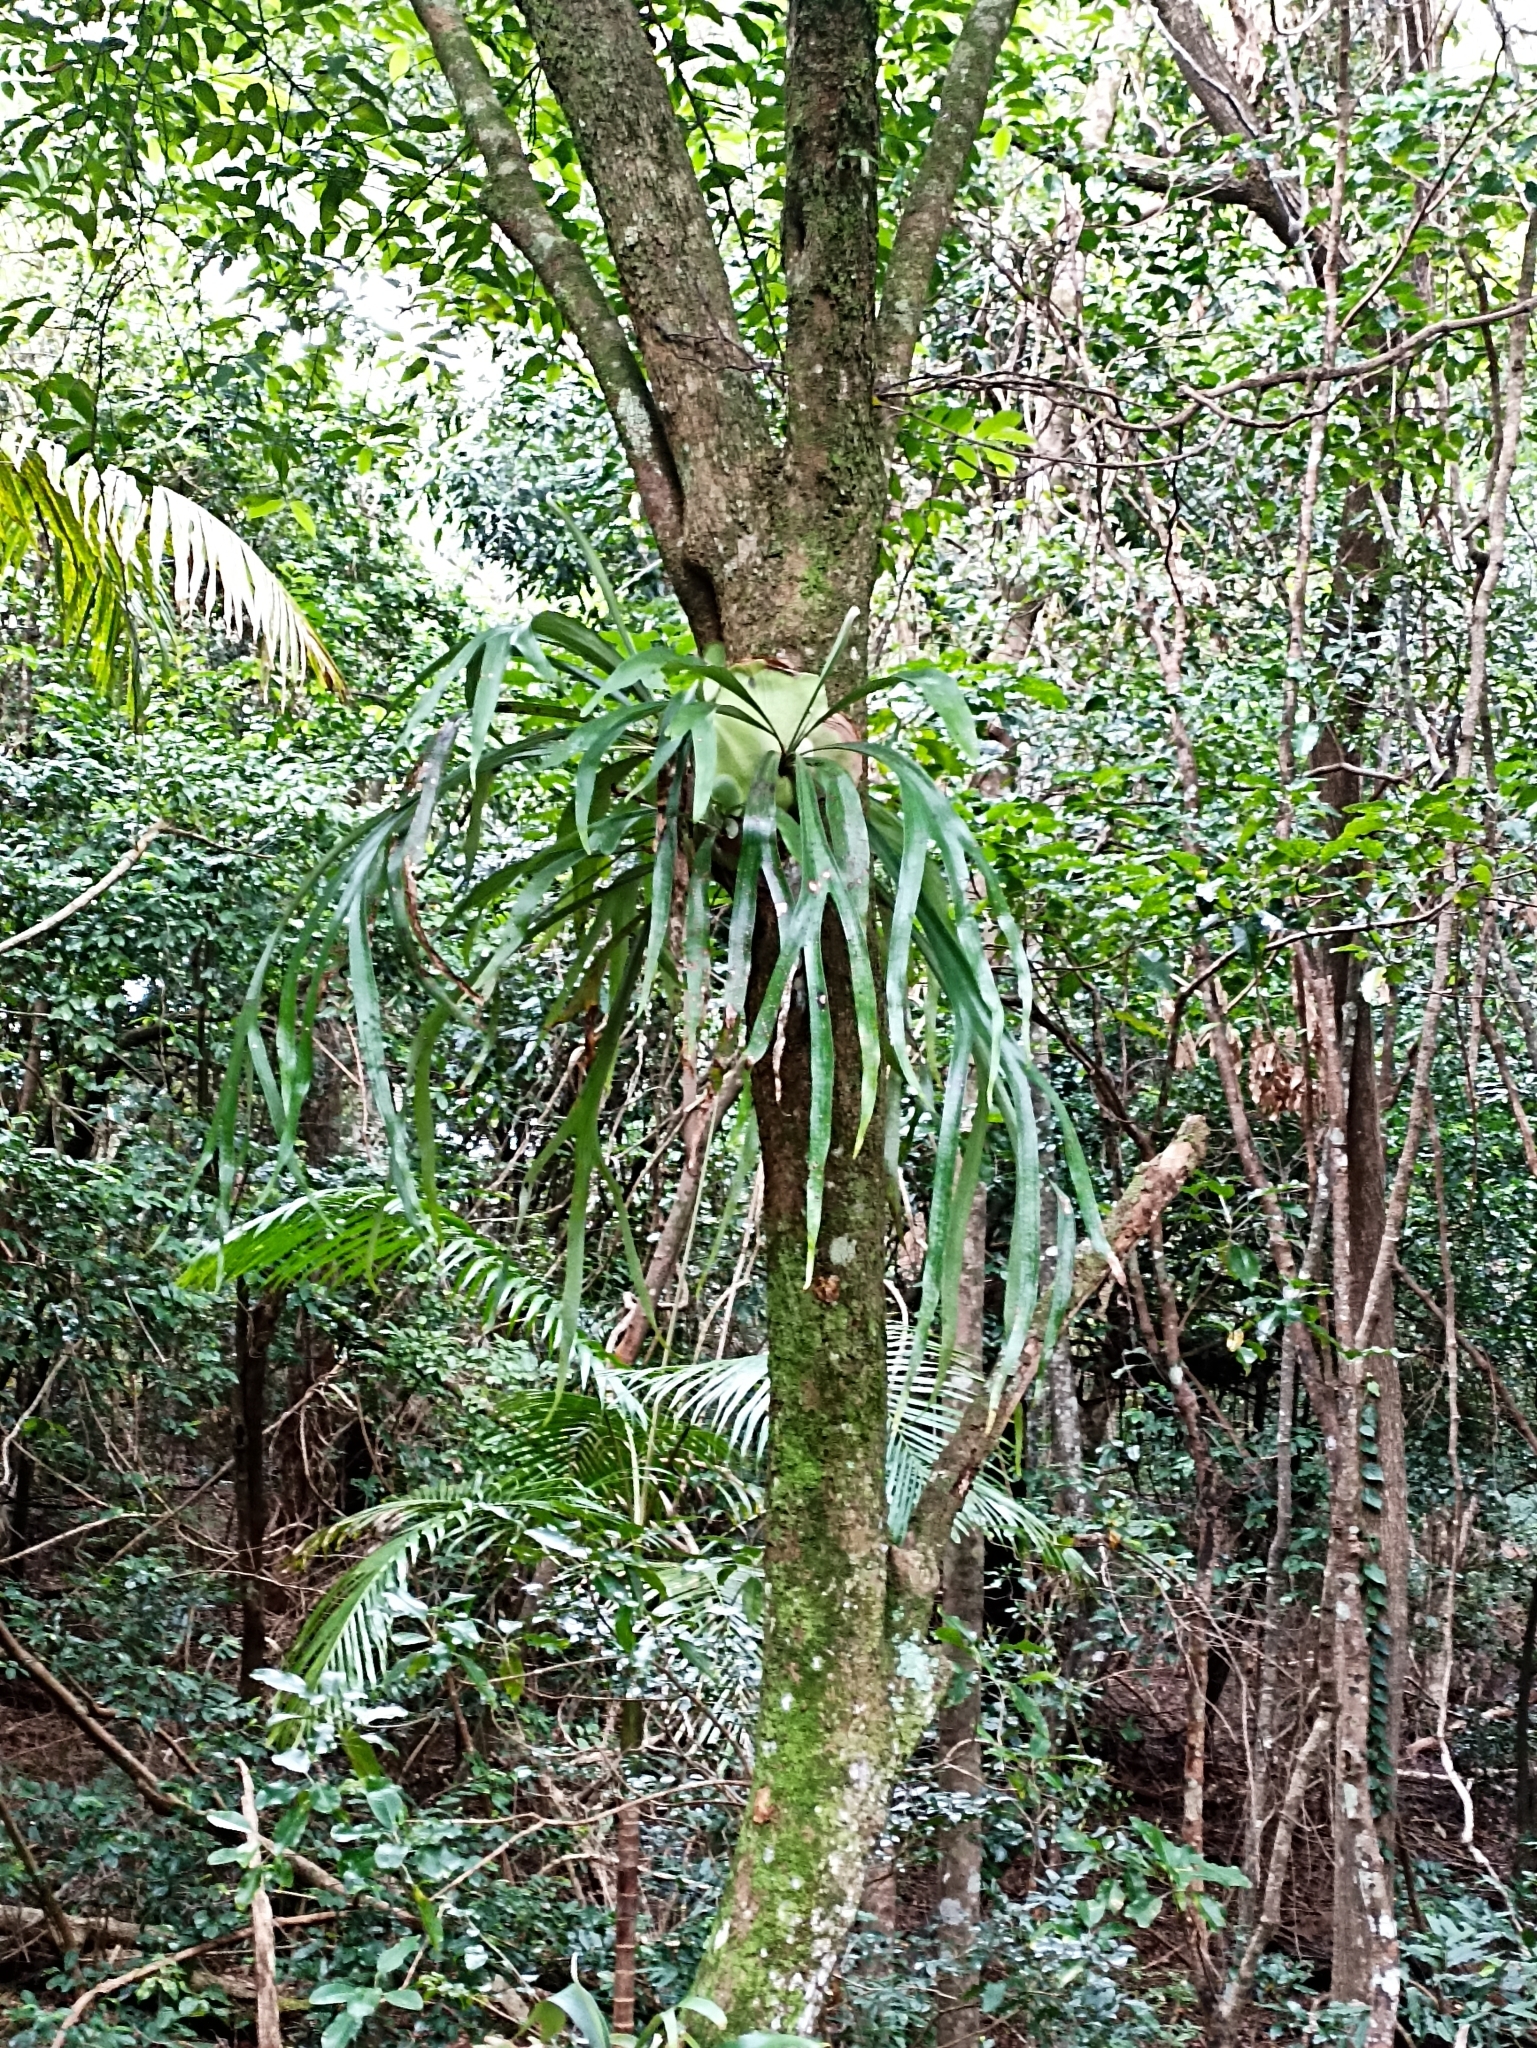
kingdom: Plantae
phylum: Tracheophyta
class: Polypodiopsida
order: Polypodiales
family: Polypodiaceae
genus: Platycerium
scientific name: Platycerium bifurcatum
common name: Elkhorn fern
